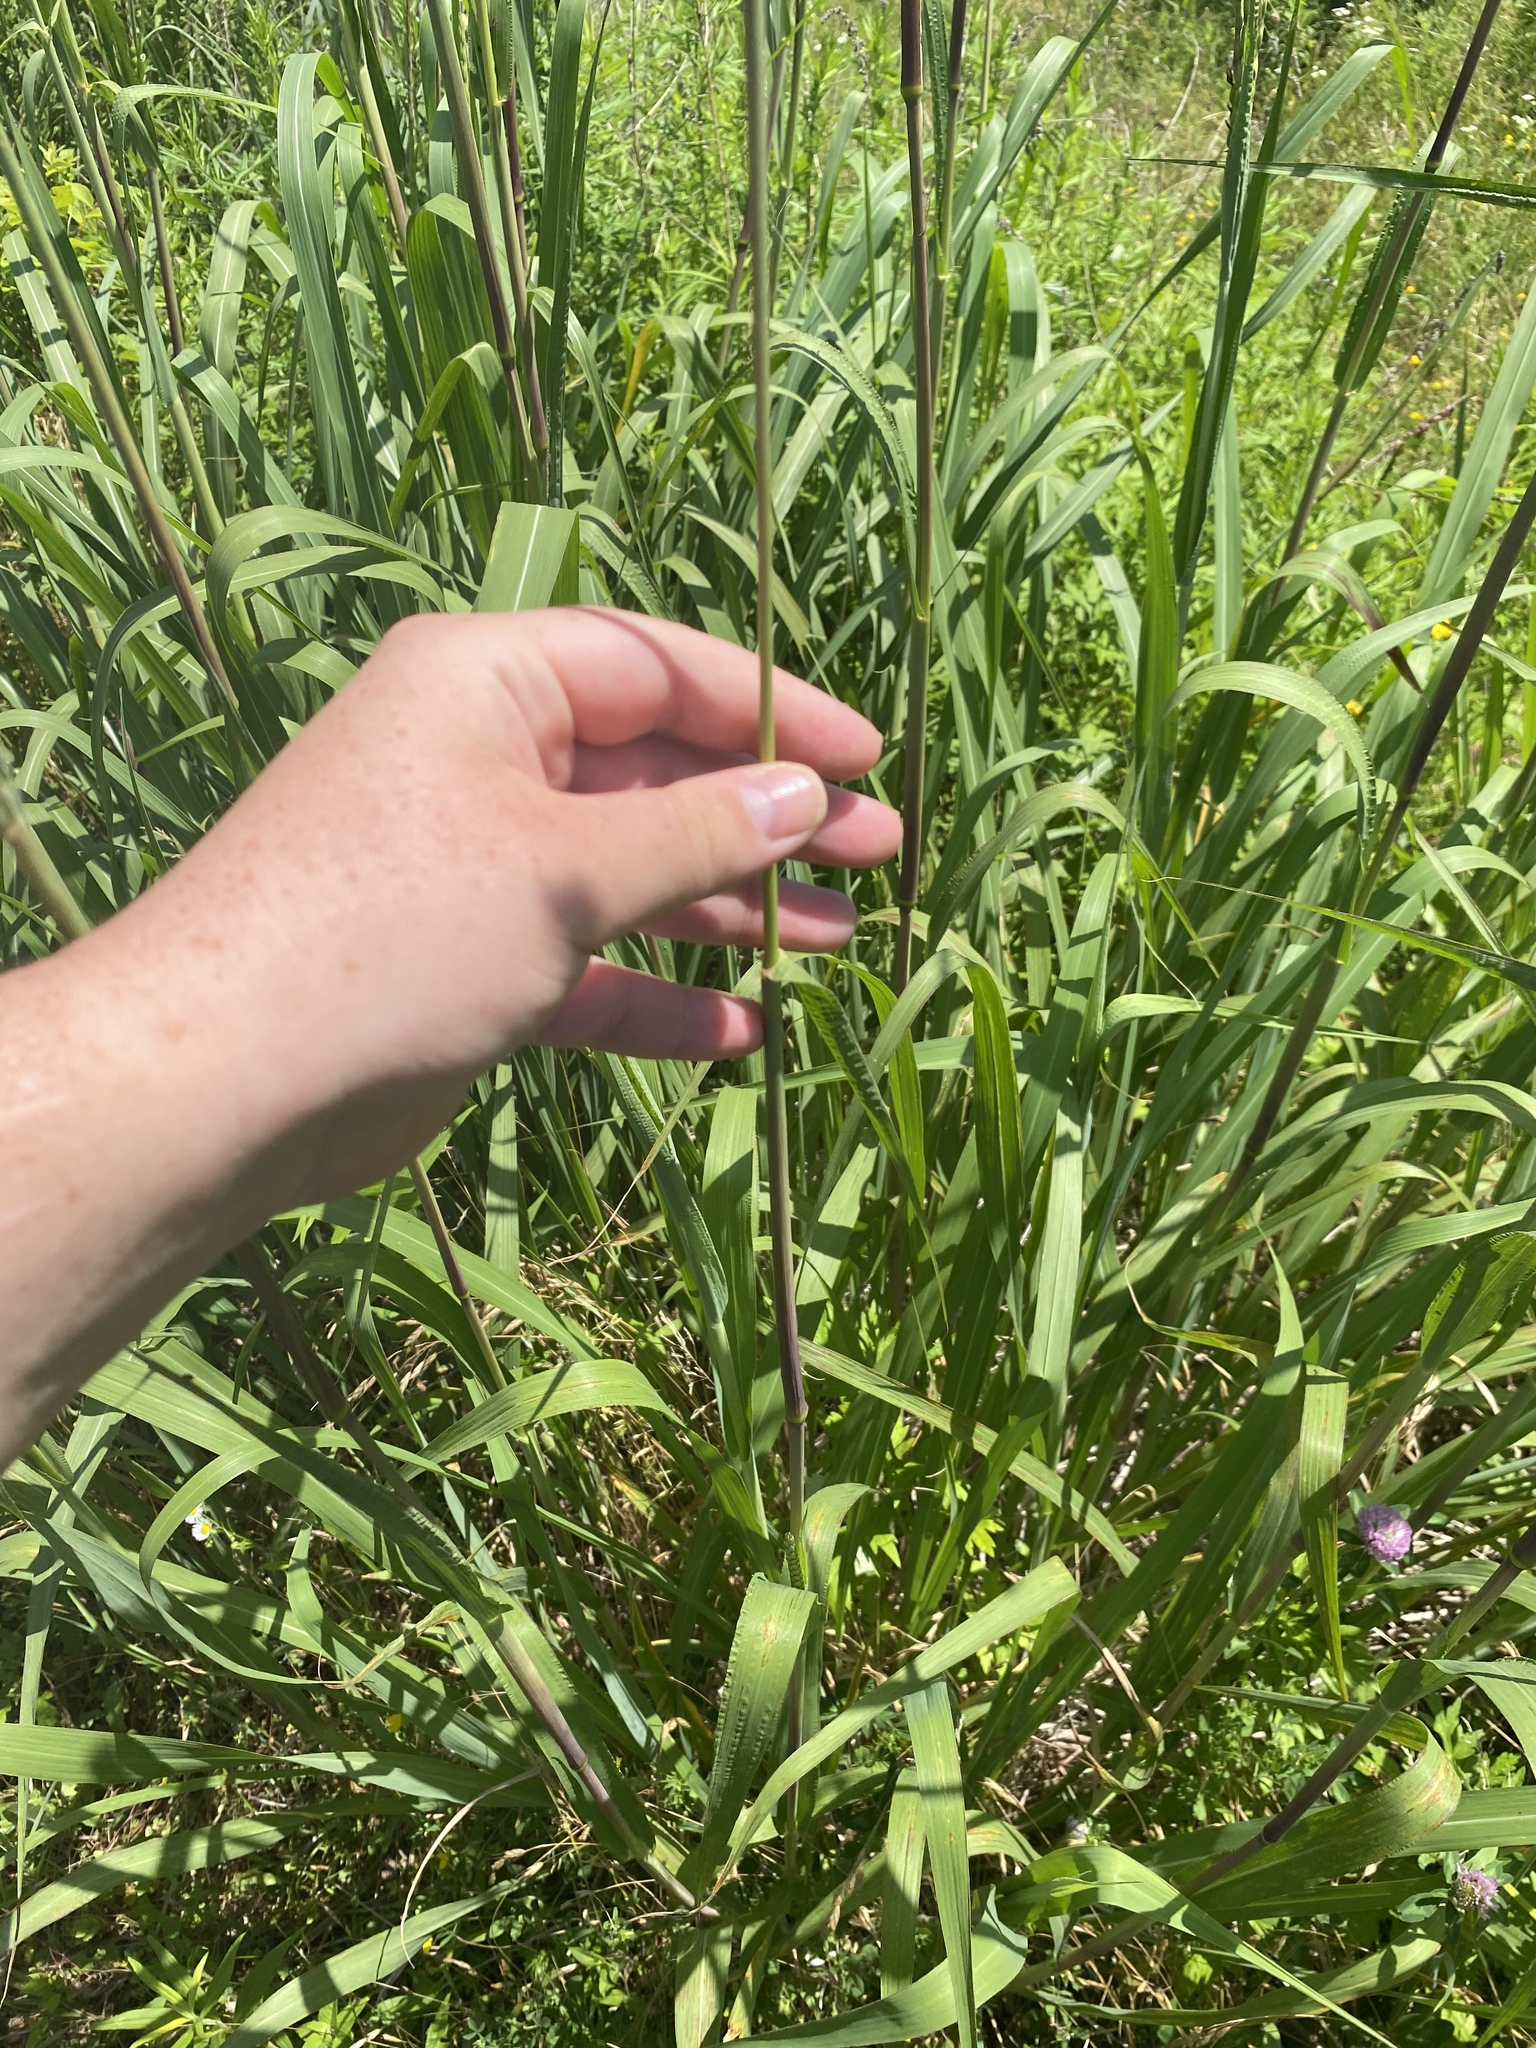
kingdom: Plantae
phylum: Tracheophyta
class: Liliopsida
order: Poales
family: Poaceae
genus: Tripsacum
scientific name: Tripsacum dactyloides
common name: Buffalo-grass
